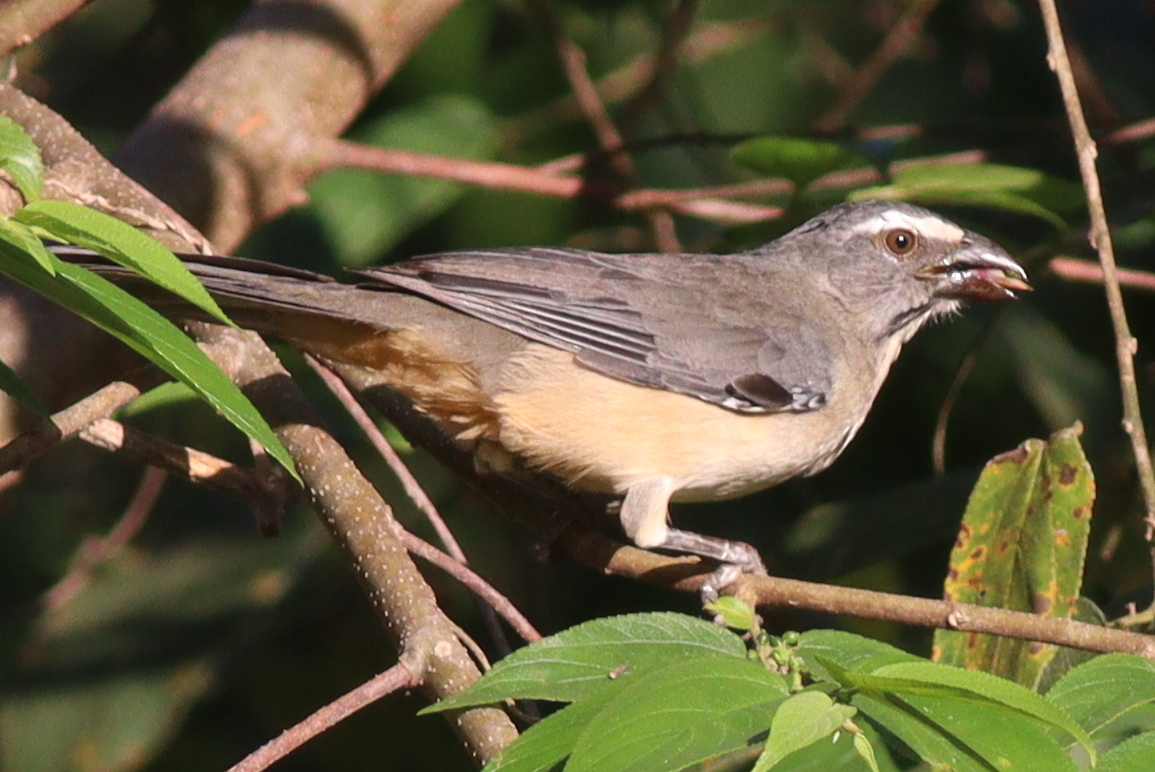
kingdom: Animalia
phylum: Chordata
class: Aves
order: Passeriformes
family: Thraupidae
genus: Saltator
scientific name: Saltator coerulescens
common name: Grayish saltator
